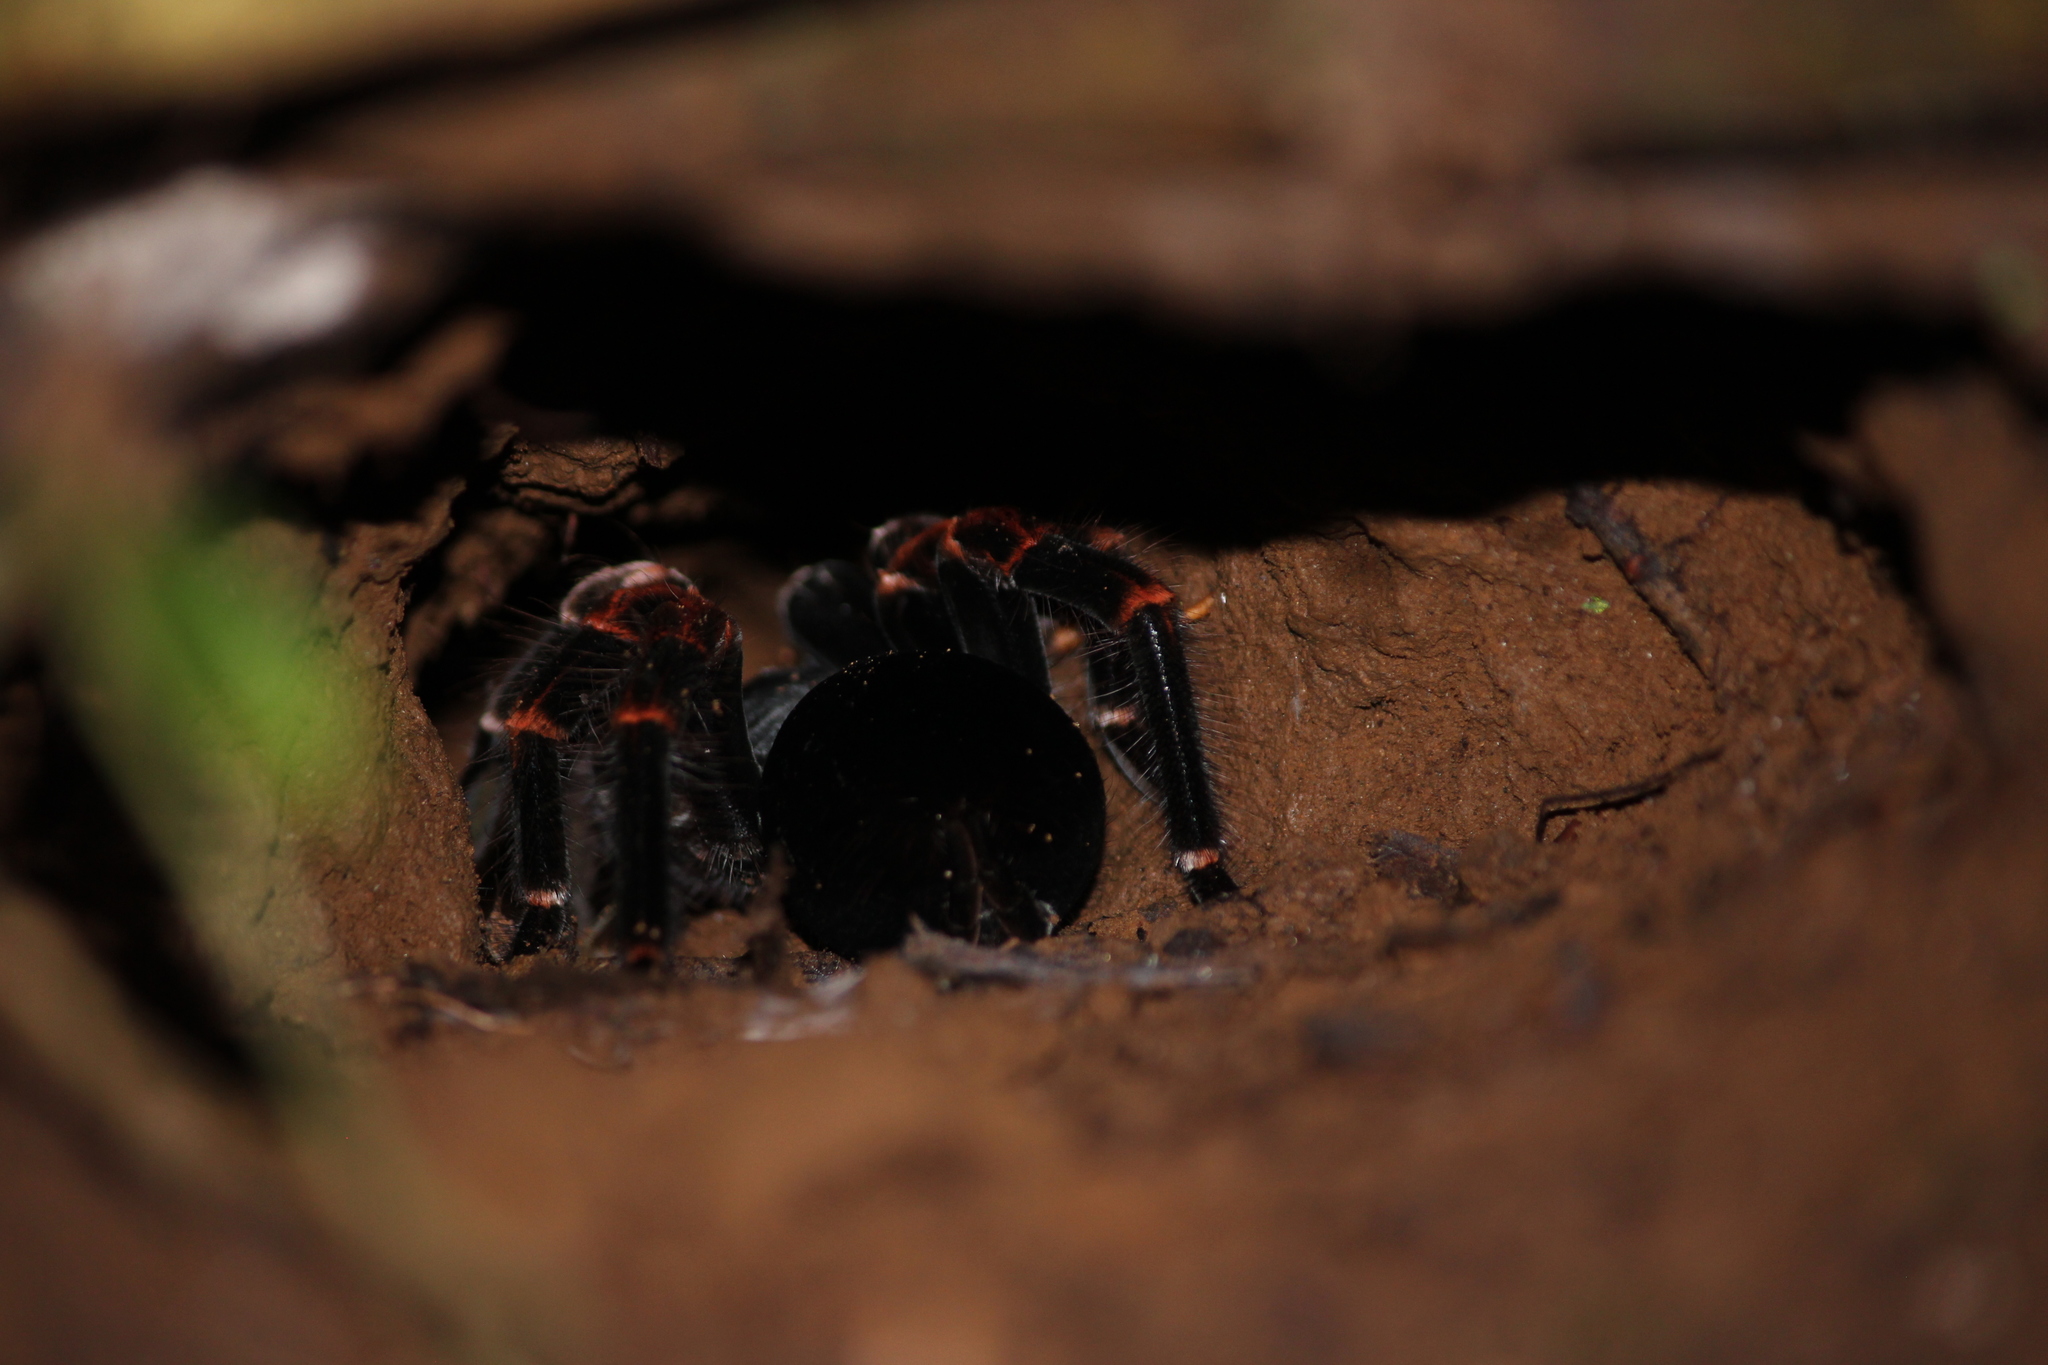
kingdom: Animalia
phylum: Arthropoda
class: Arachnida
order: Araneae
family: Theraphosidae
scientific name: Theraphosidae
